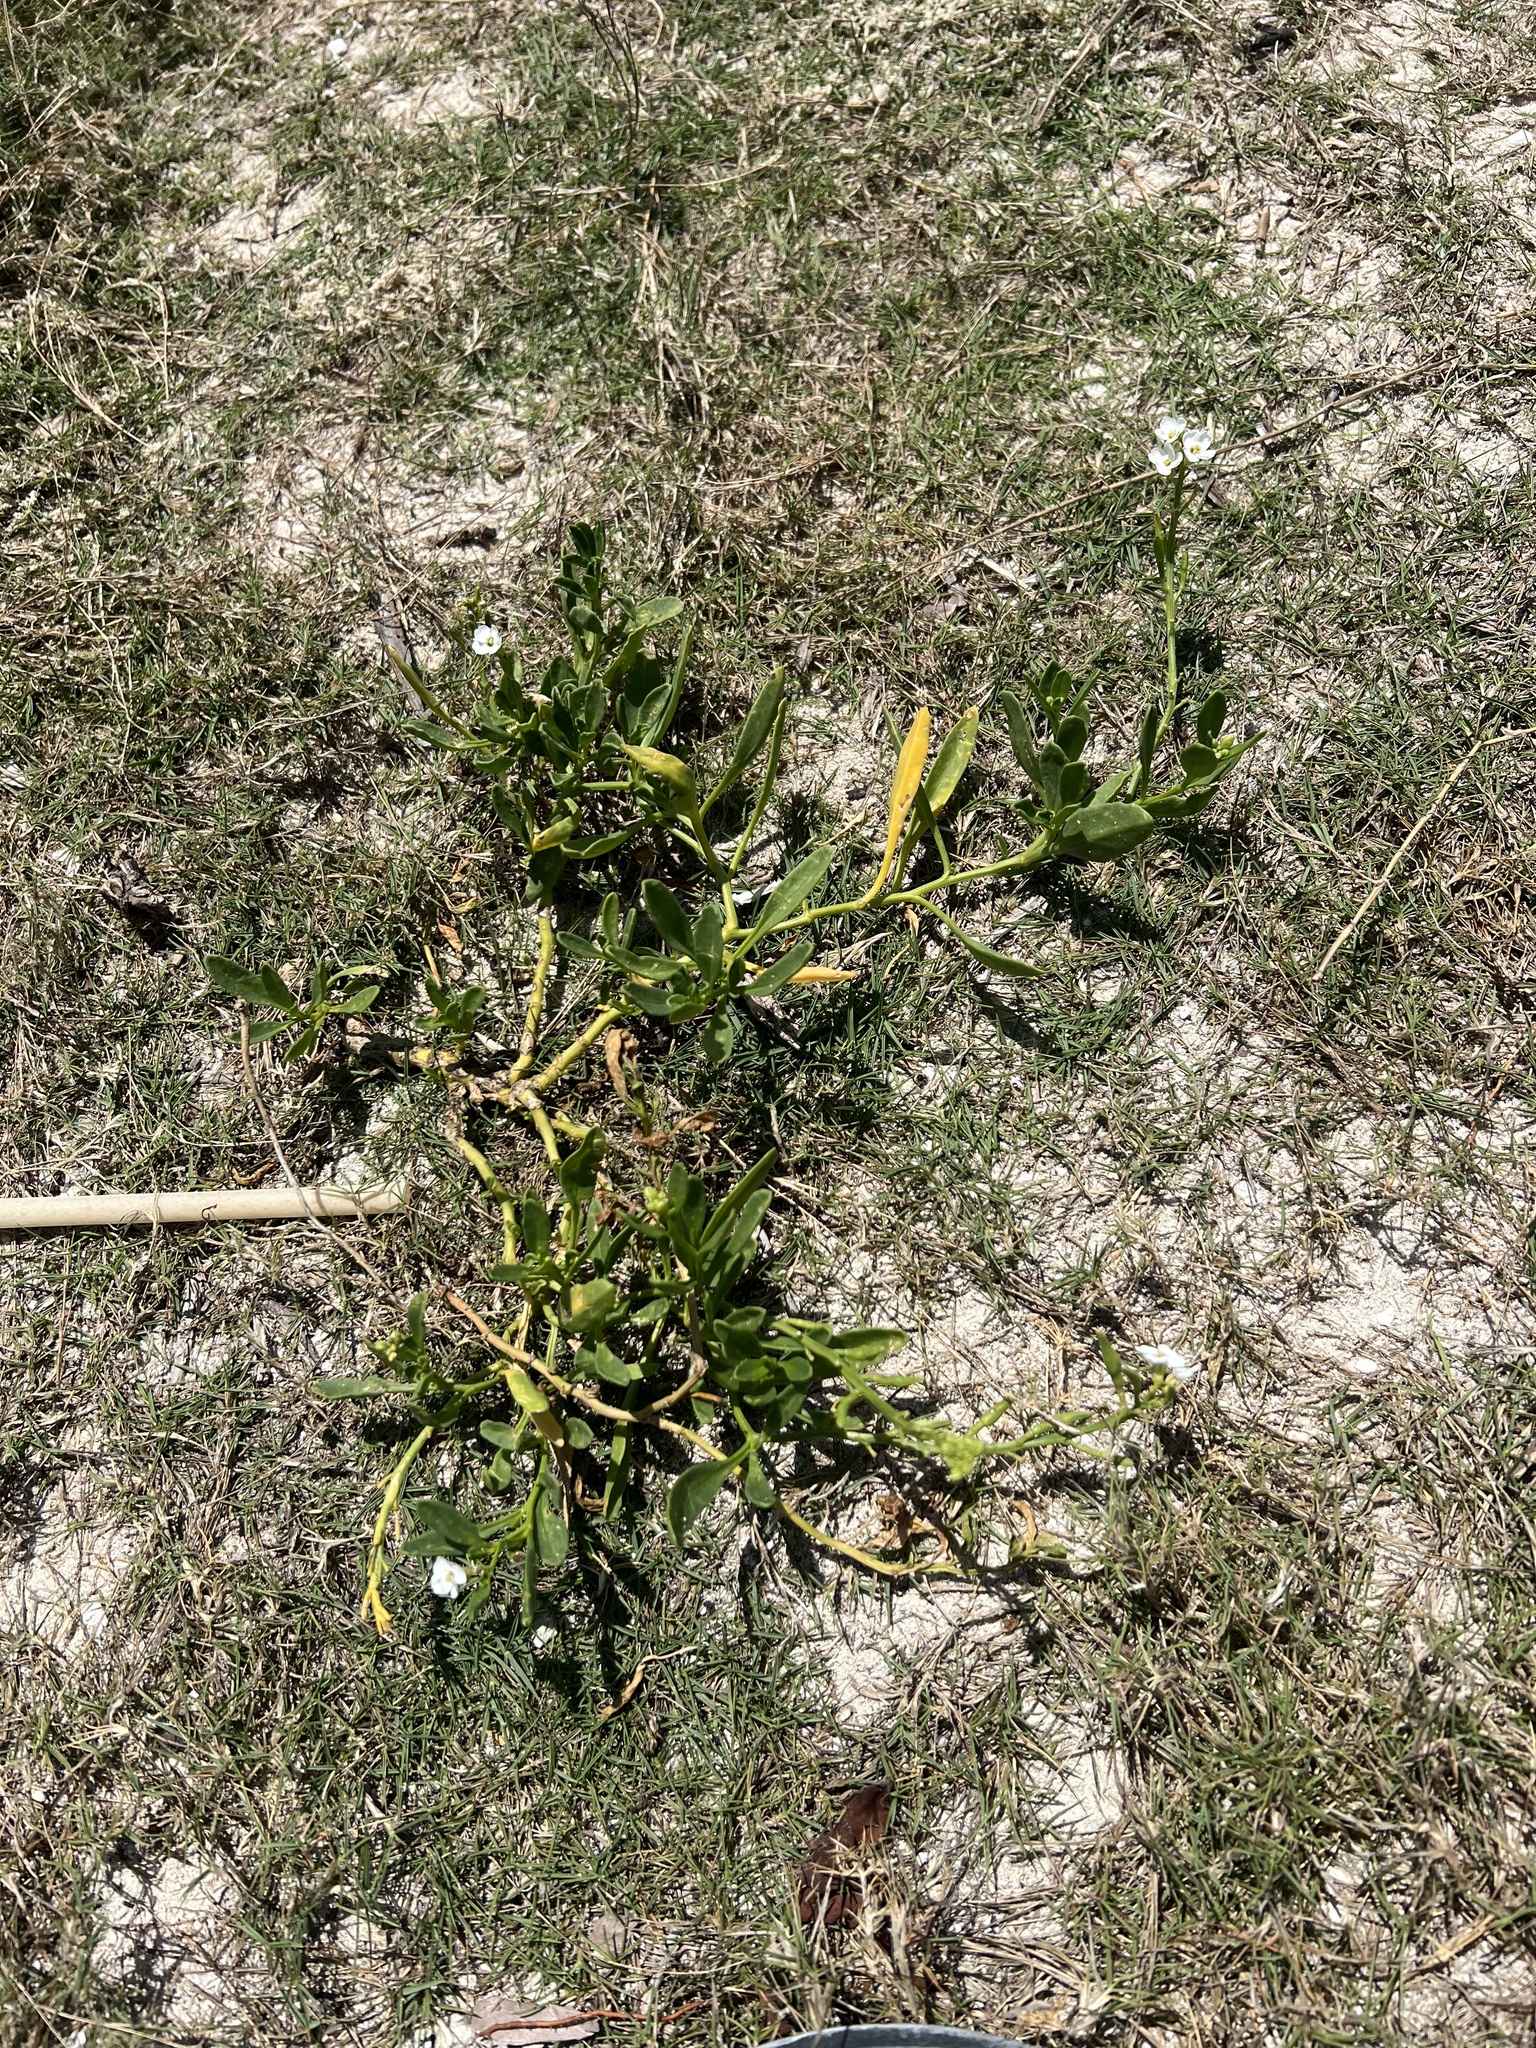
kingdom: Plantae
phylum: Tracheophyta
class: Magnoliopsida
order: Brassicales
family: Brassicaceae
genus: Cakile
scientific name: Cakile lanceolata
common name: Sea rocket
